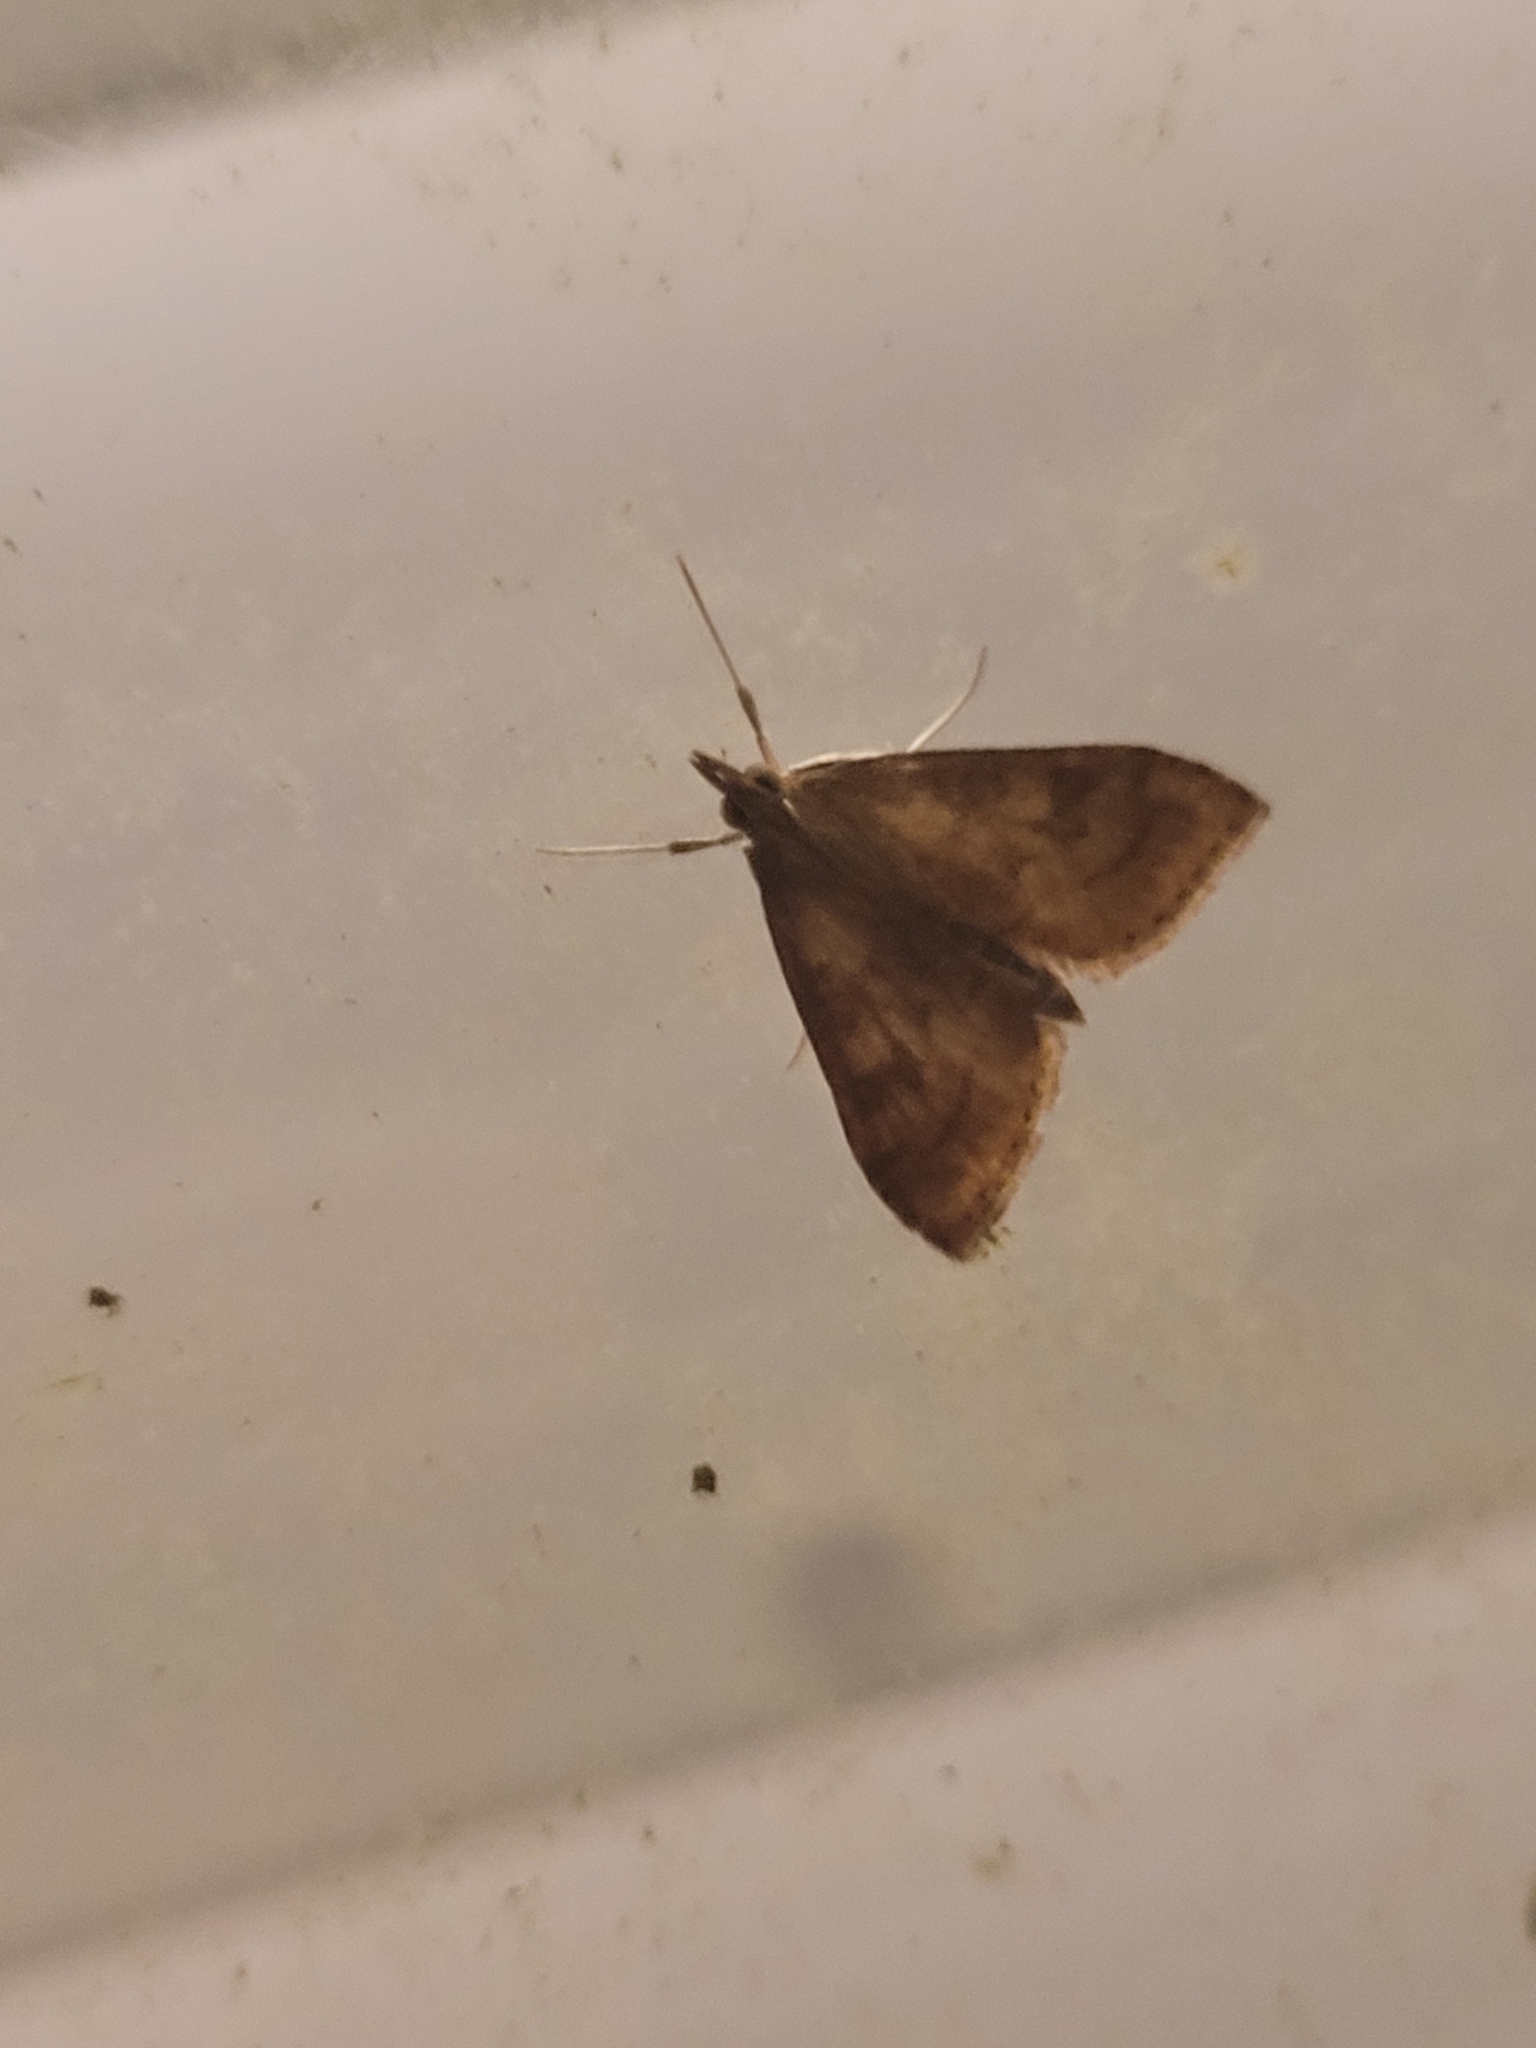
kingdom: Animalia
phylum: Arthropoda
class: Insecta
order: Lepidoptera
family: Crambidae
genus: Udea
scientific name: Udea rubigalis
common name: Celery leaftier moth
